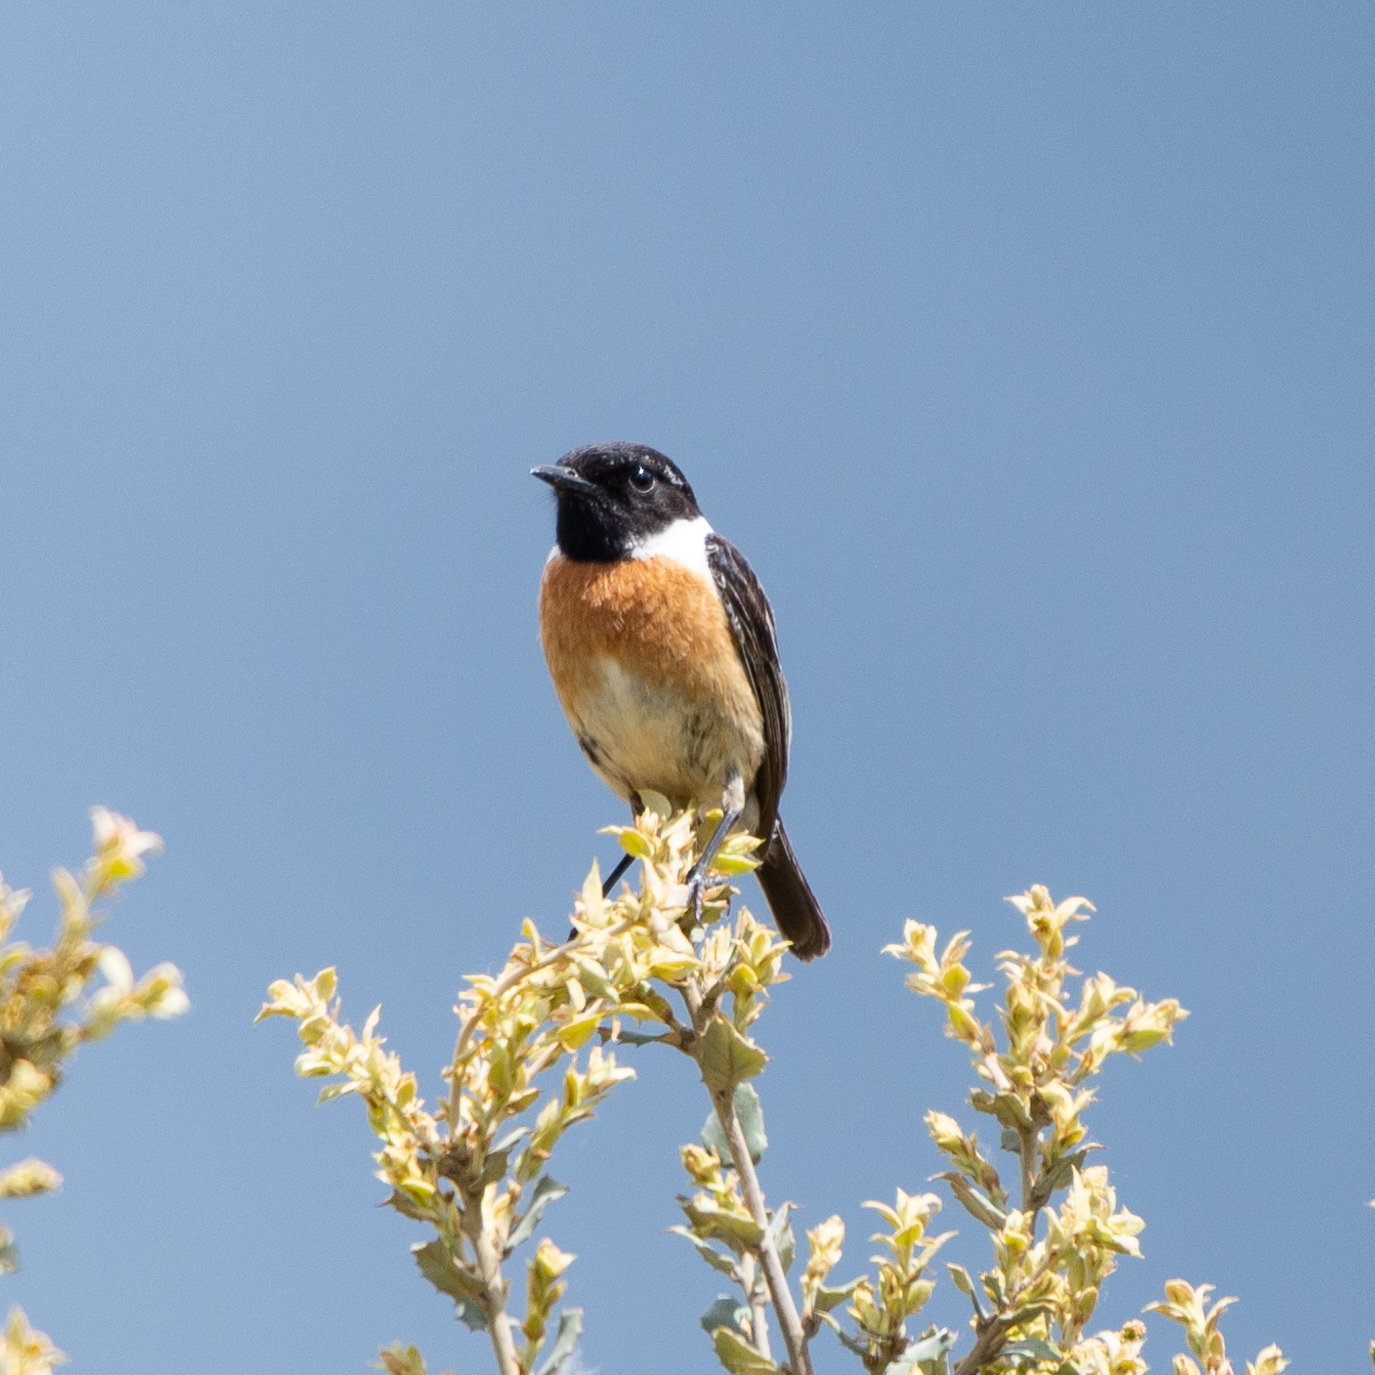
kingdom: Animalia
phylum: Chordata
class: Aves
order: Passeriformes
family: Muscicapidae
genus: Saxicola
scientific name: Saxicola rubicola
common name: European stonechat
